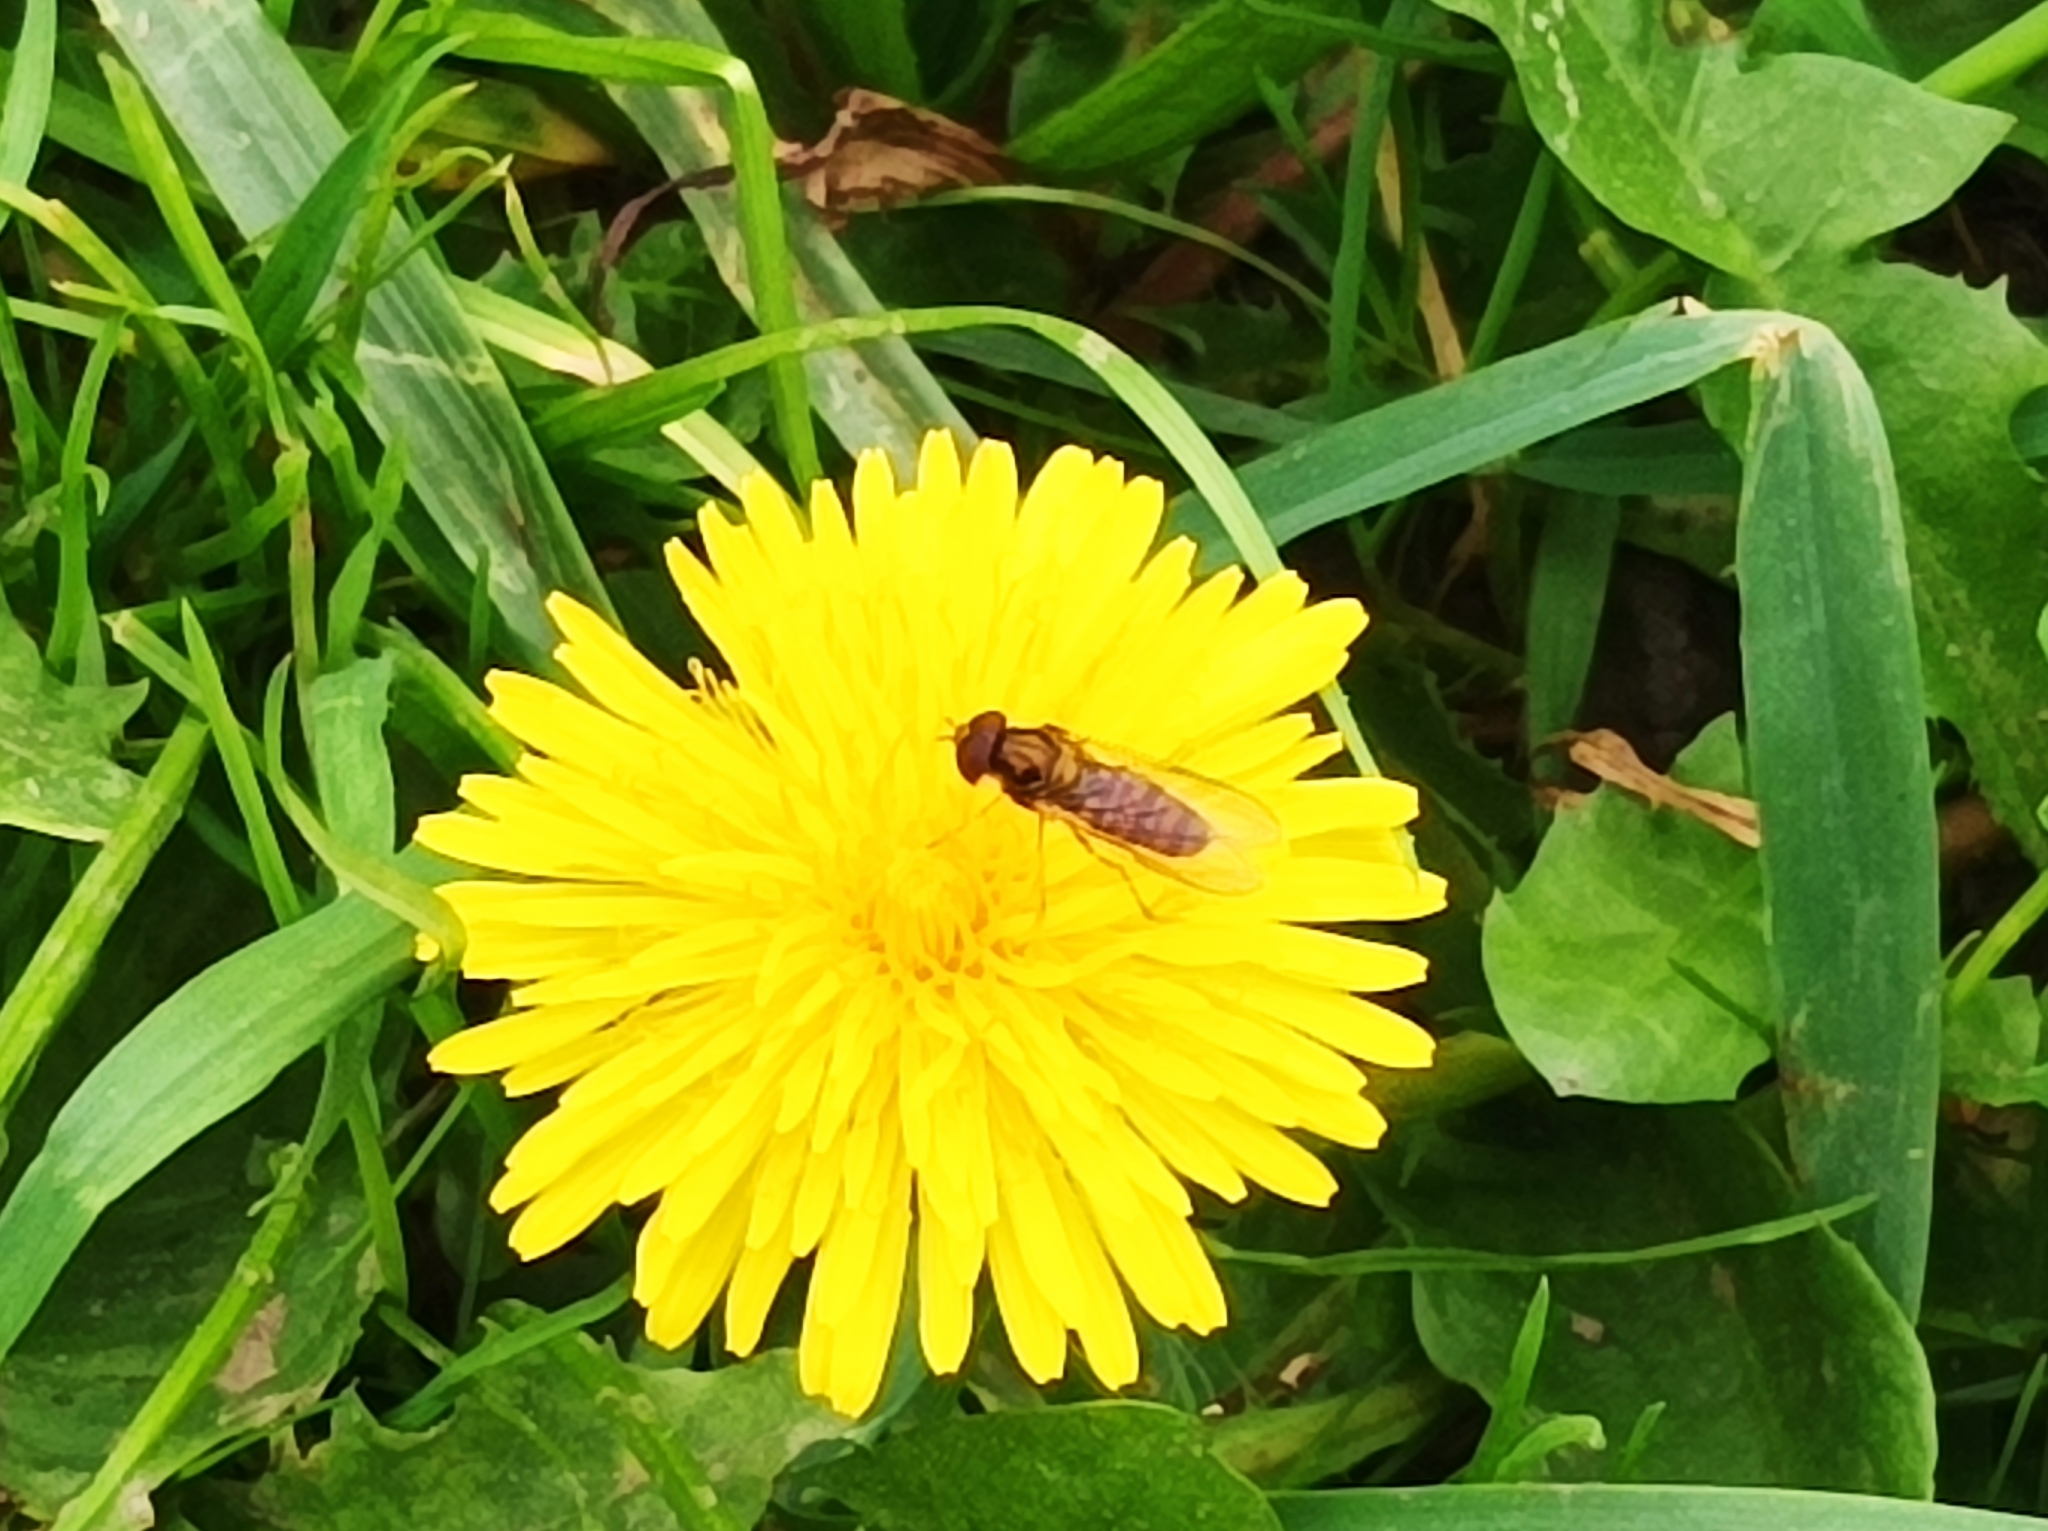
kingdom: Animalia
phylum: Arthropoda
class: Insecta
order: Diptera
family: Syrphidae
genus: Episyrphus
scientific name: Episyrphus balteatus
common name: Marmalade hoverfly
